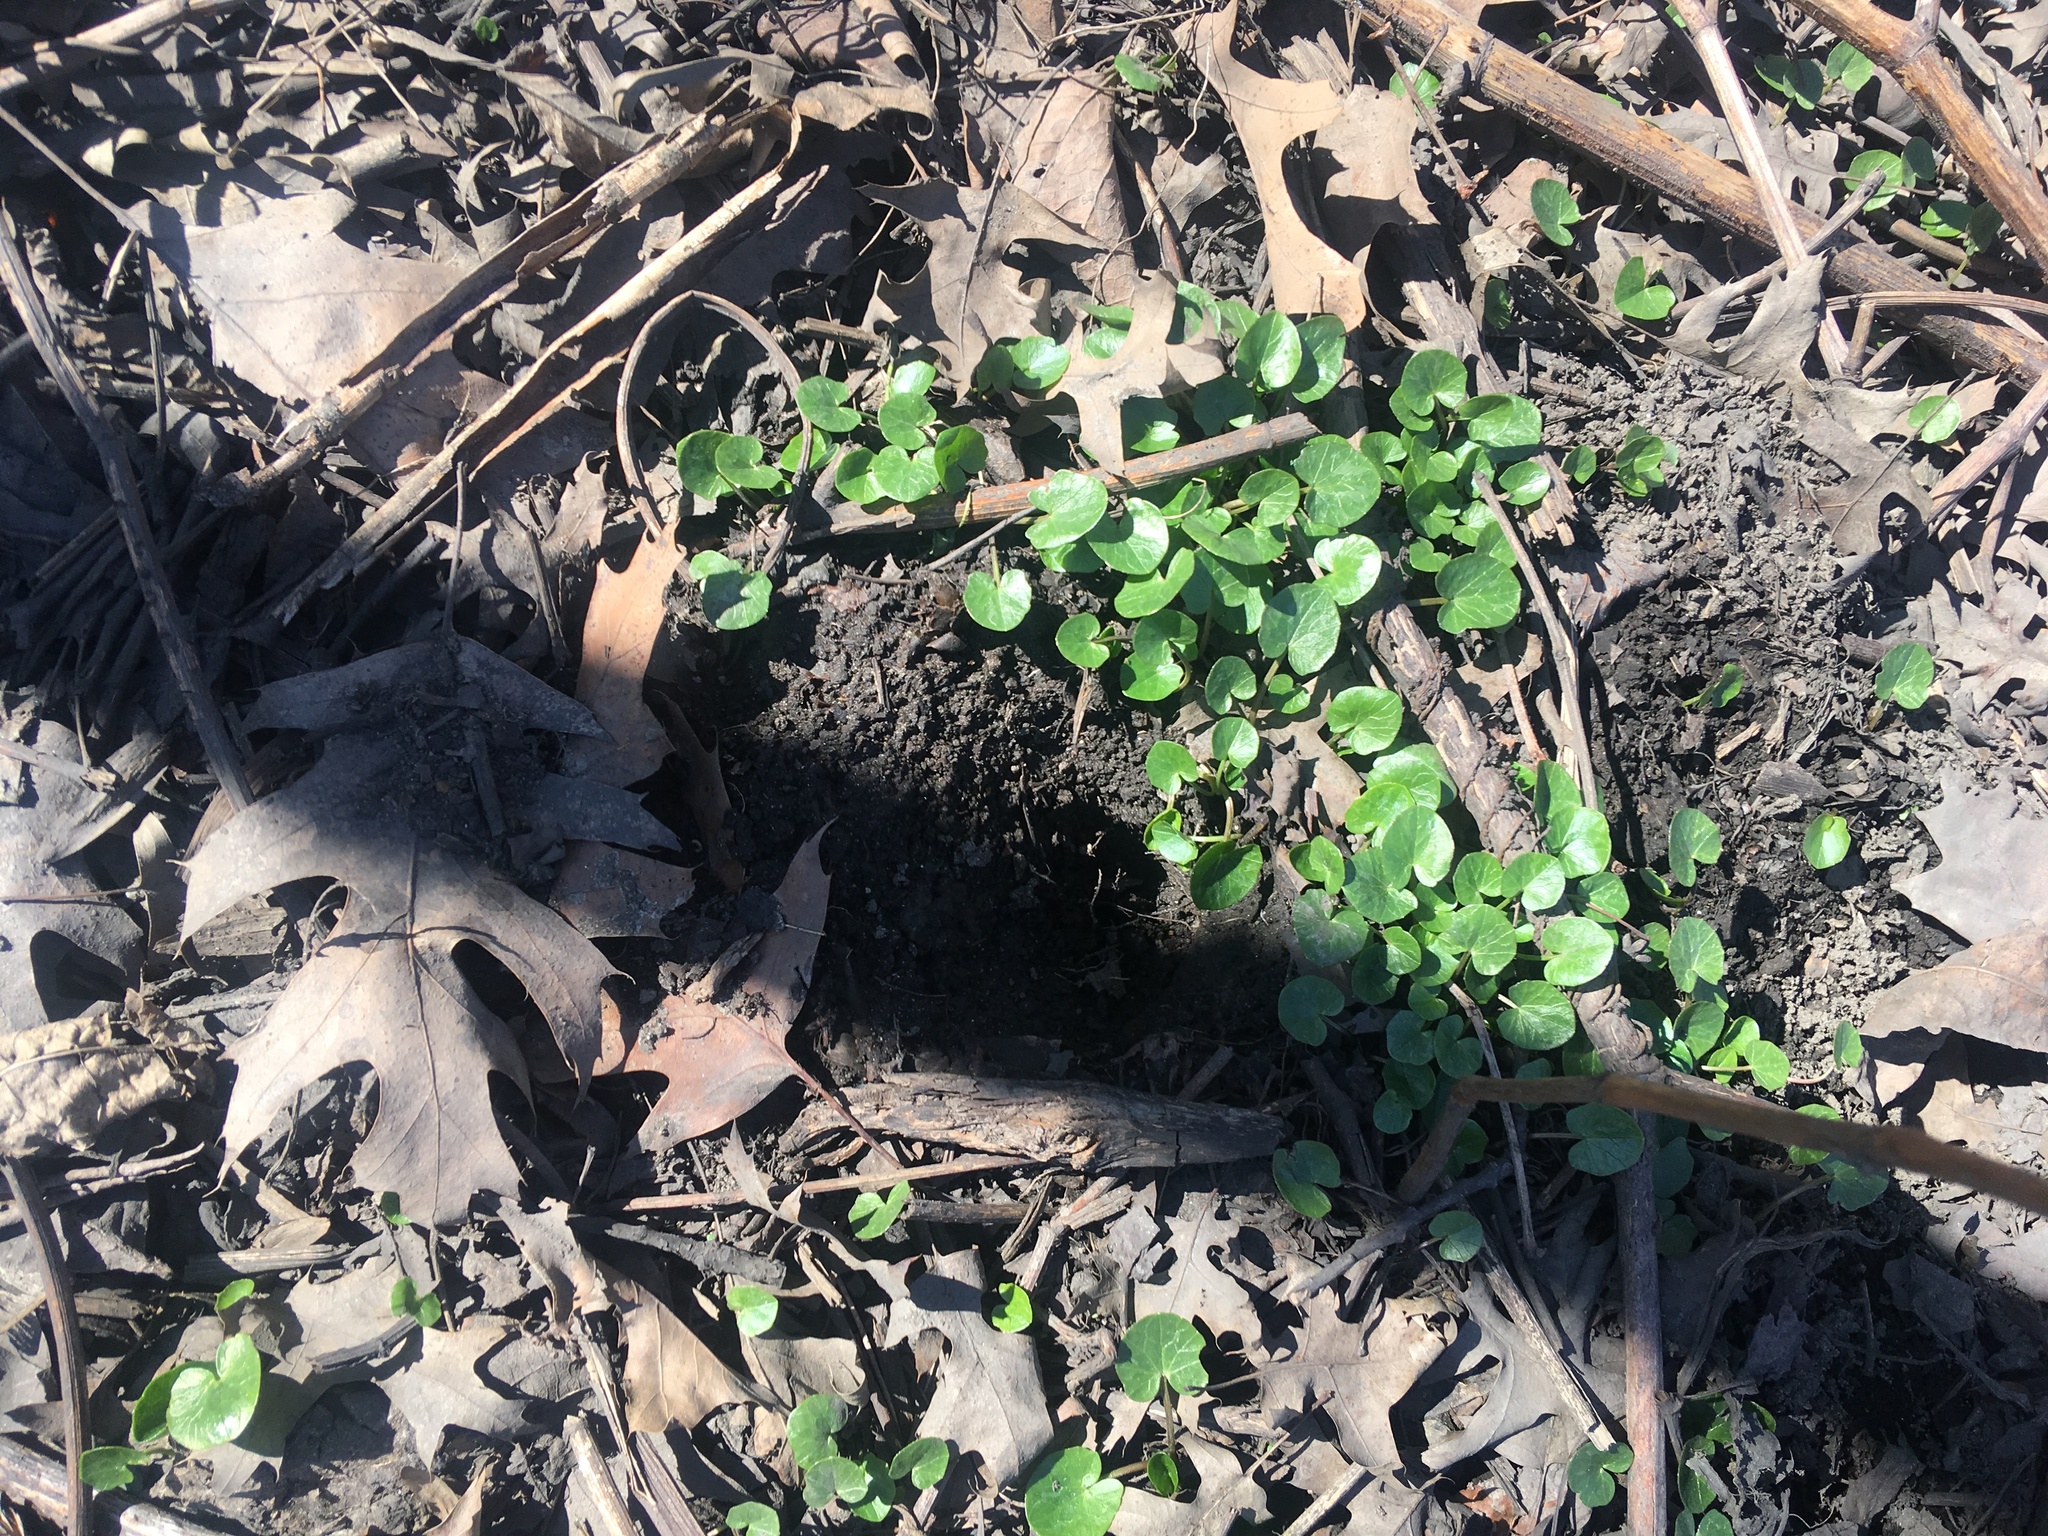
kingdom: Plantae
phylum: Tracheophyta
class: Magnoliopsida
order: Ranunculales
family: Ranunculaceae
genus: Ficaria
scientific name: Ficaria verna
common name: Lesser celandine
